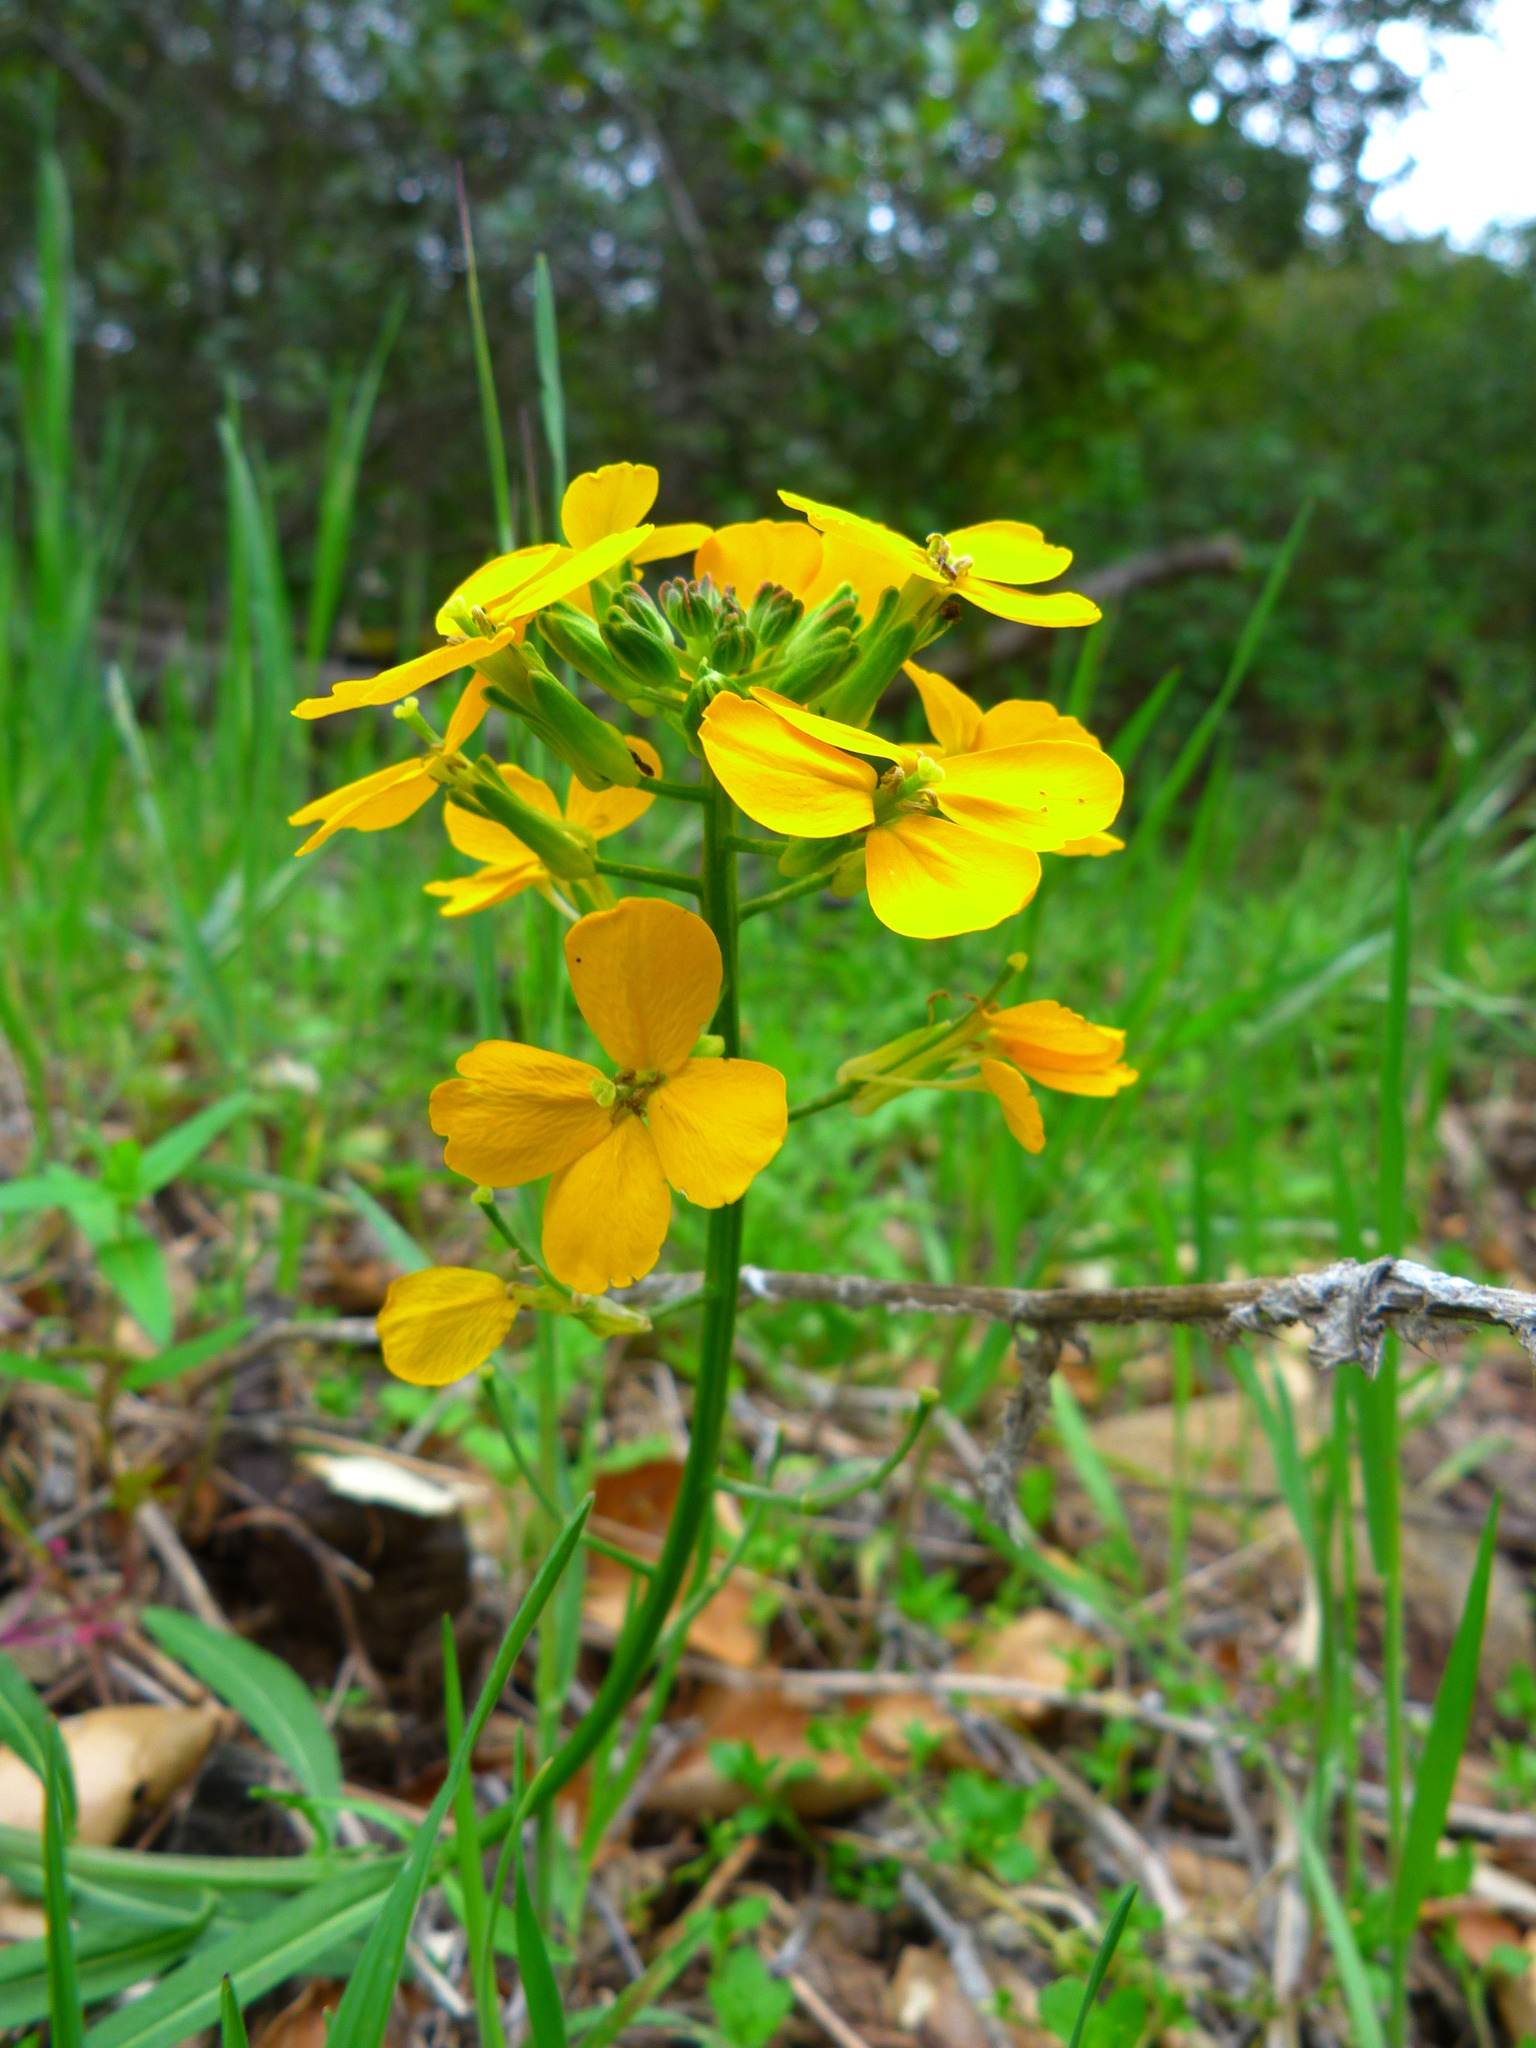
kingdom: Plantae
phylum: Tracheophyta
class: Magnoliopsida
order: Brassicales
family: Brassicaceae
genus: Erysimum
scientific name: Erysimum capitatum
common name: Western wallflower
